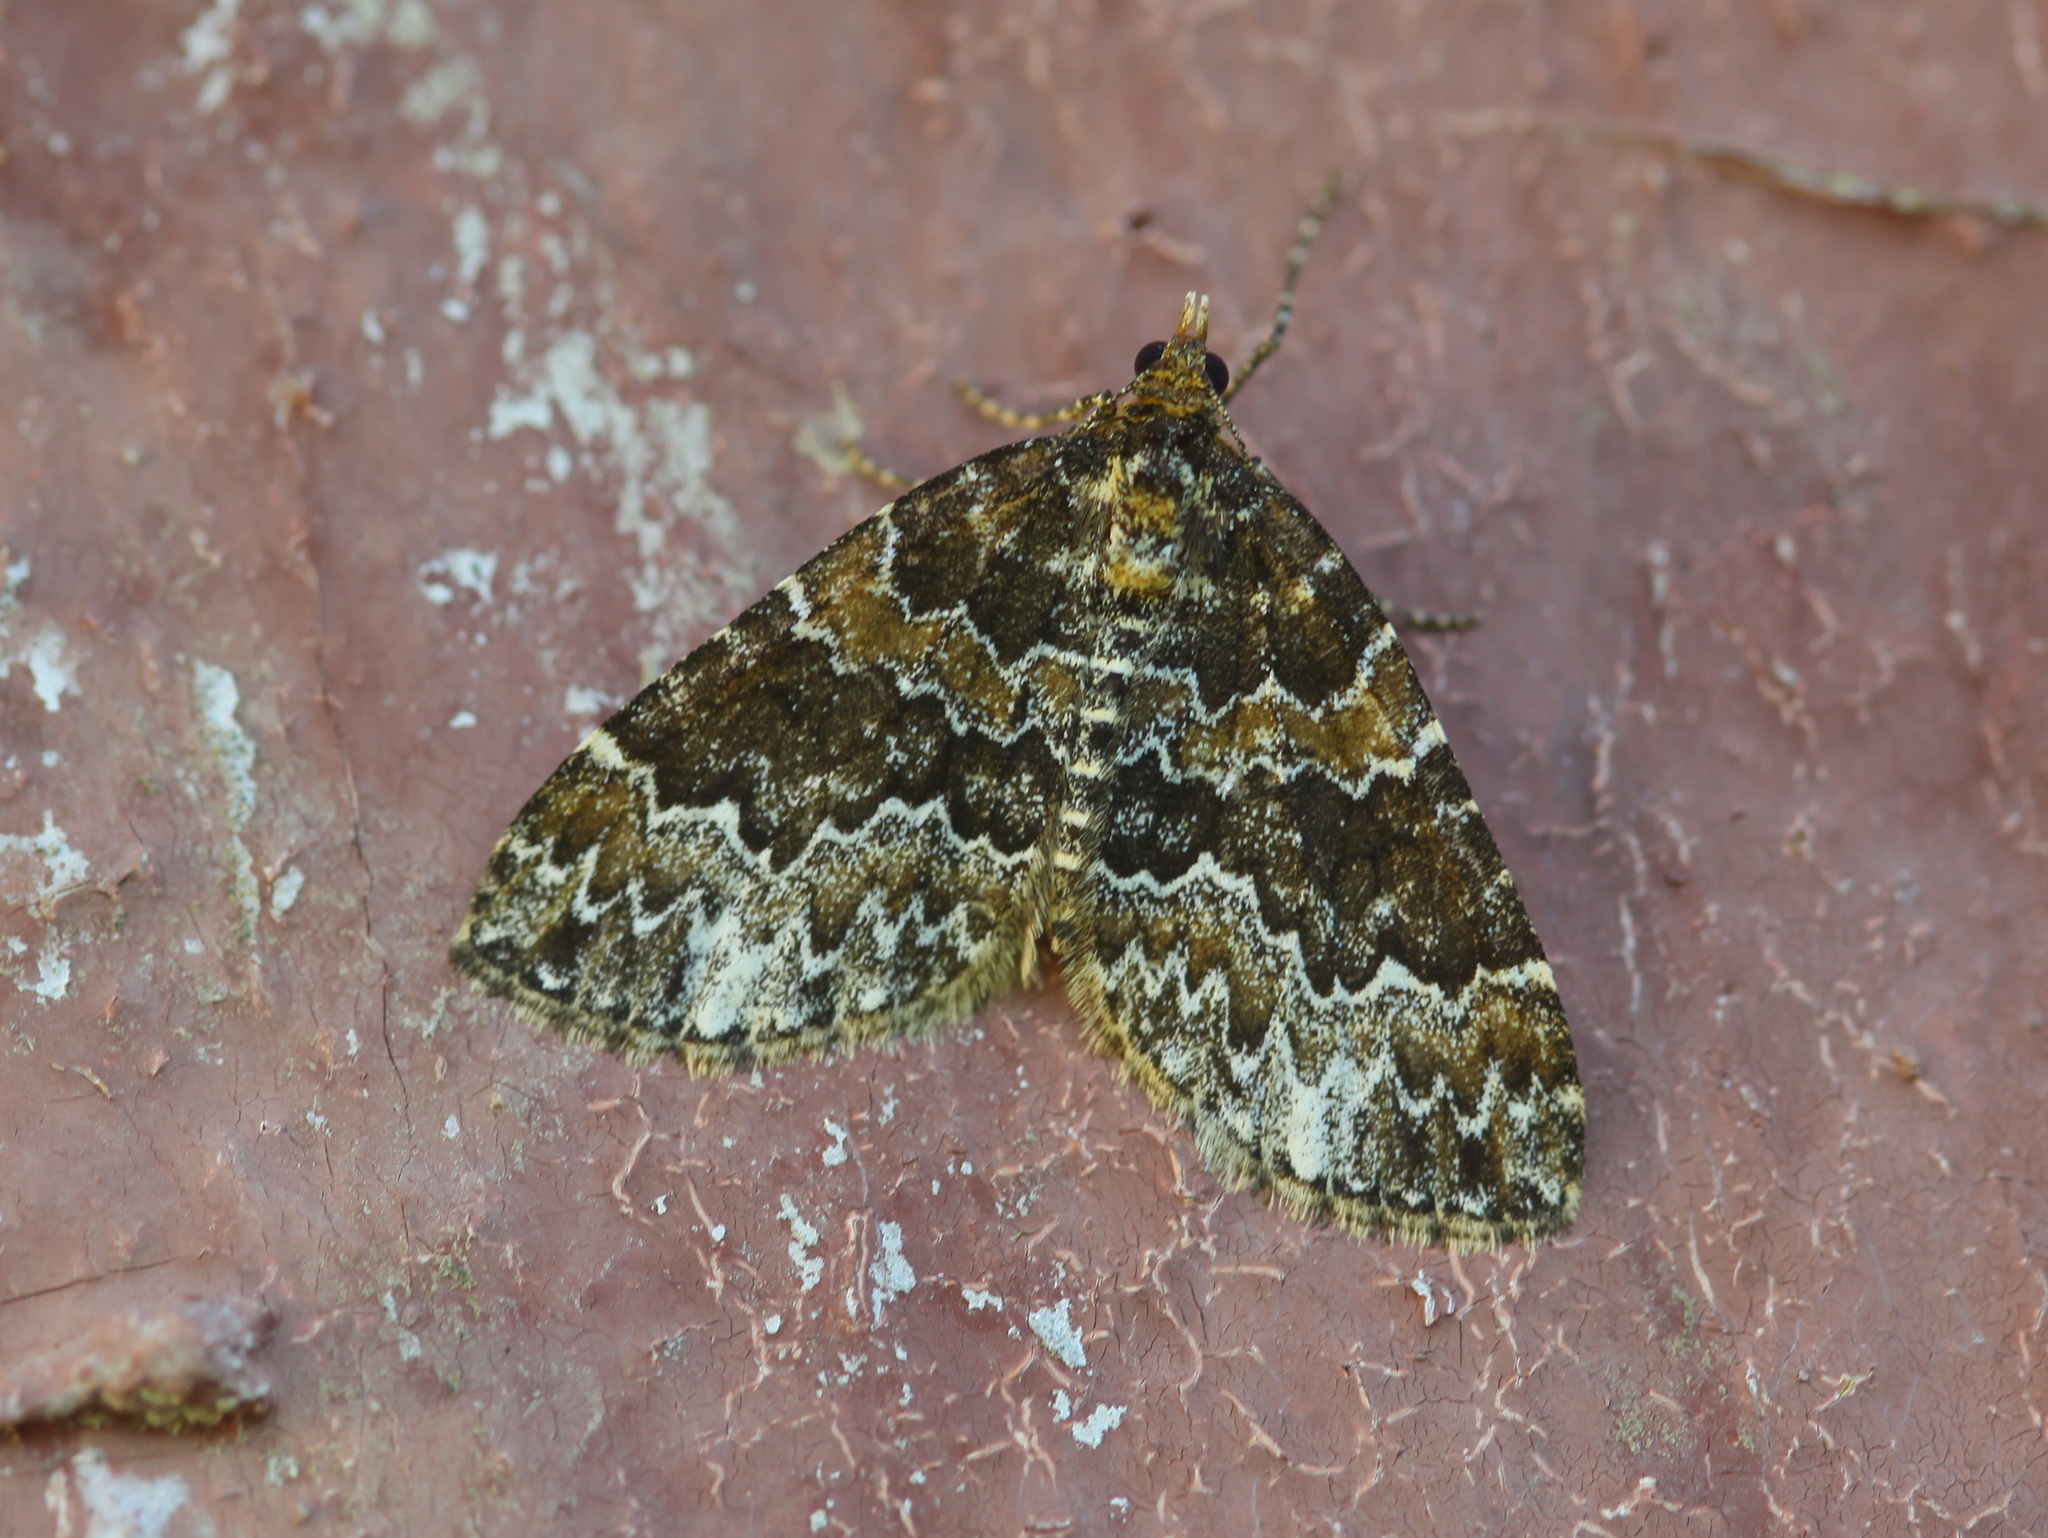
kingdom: Animalia
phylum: Arthropoda
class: Insecta
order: Lepidoptera
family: Geometridae
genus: Electrophaes
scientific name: Electrophaes corylata
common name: Broken-barred carpet
